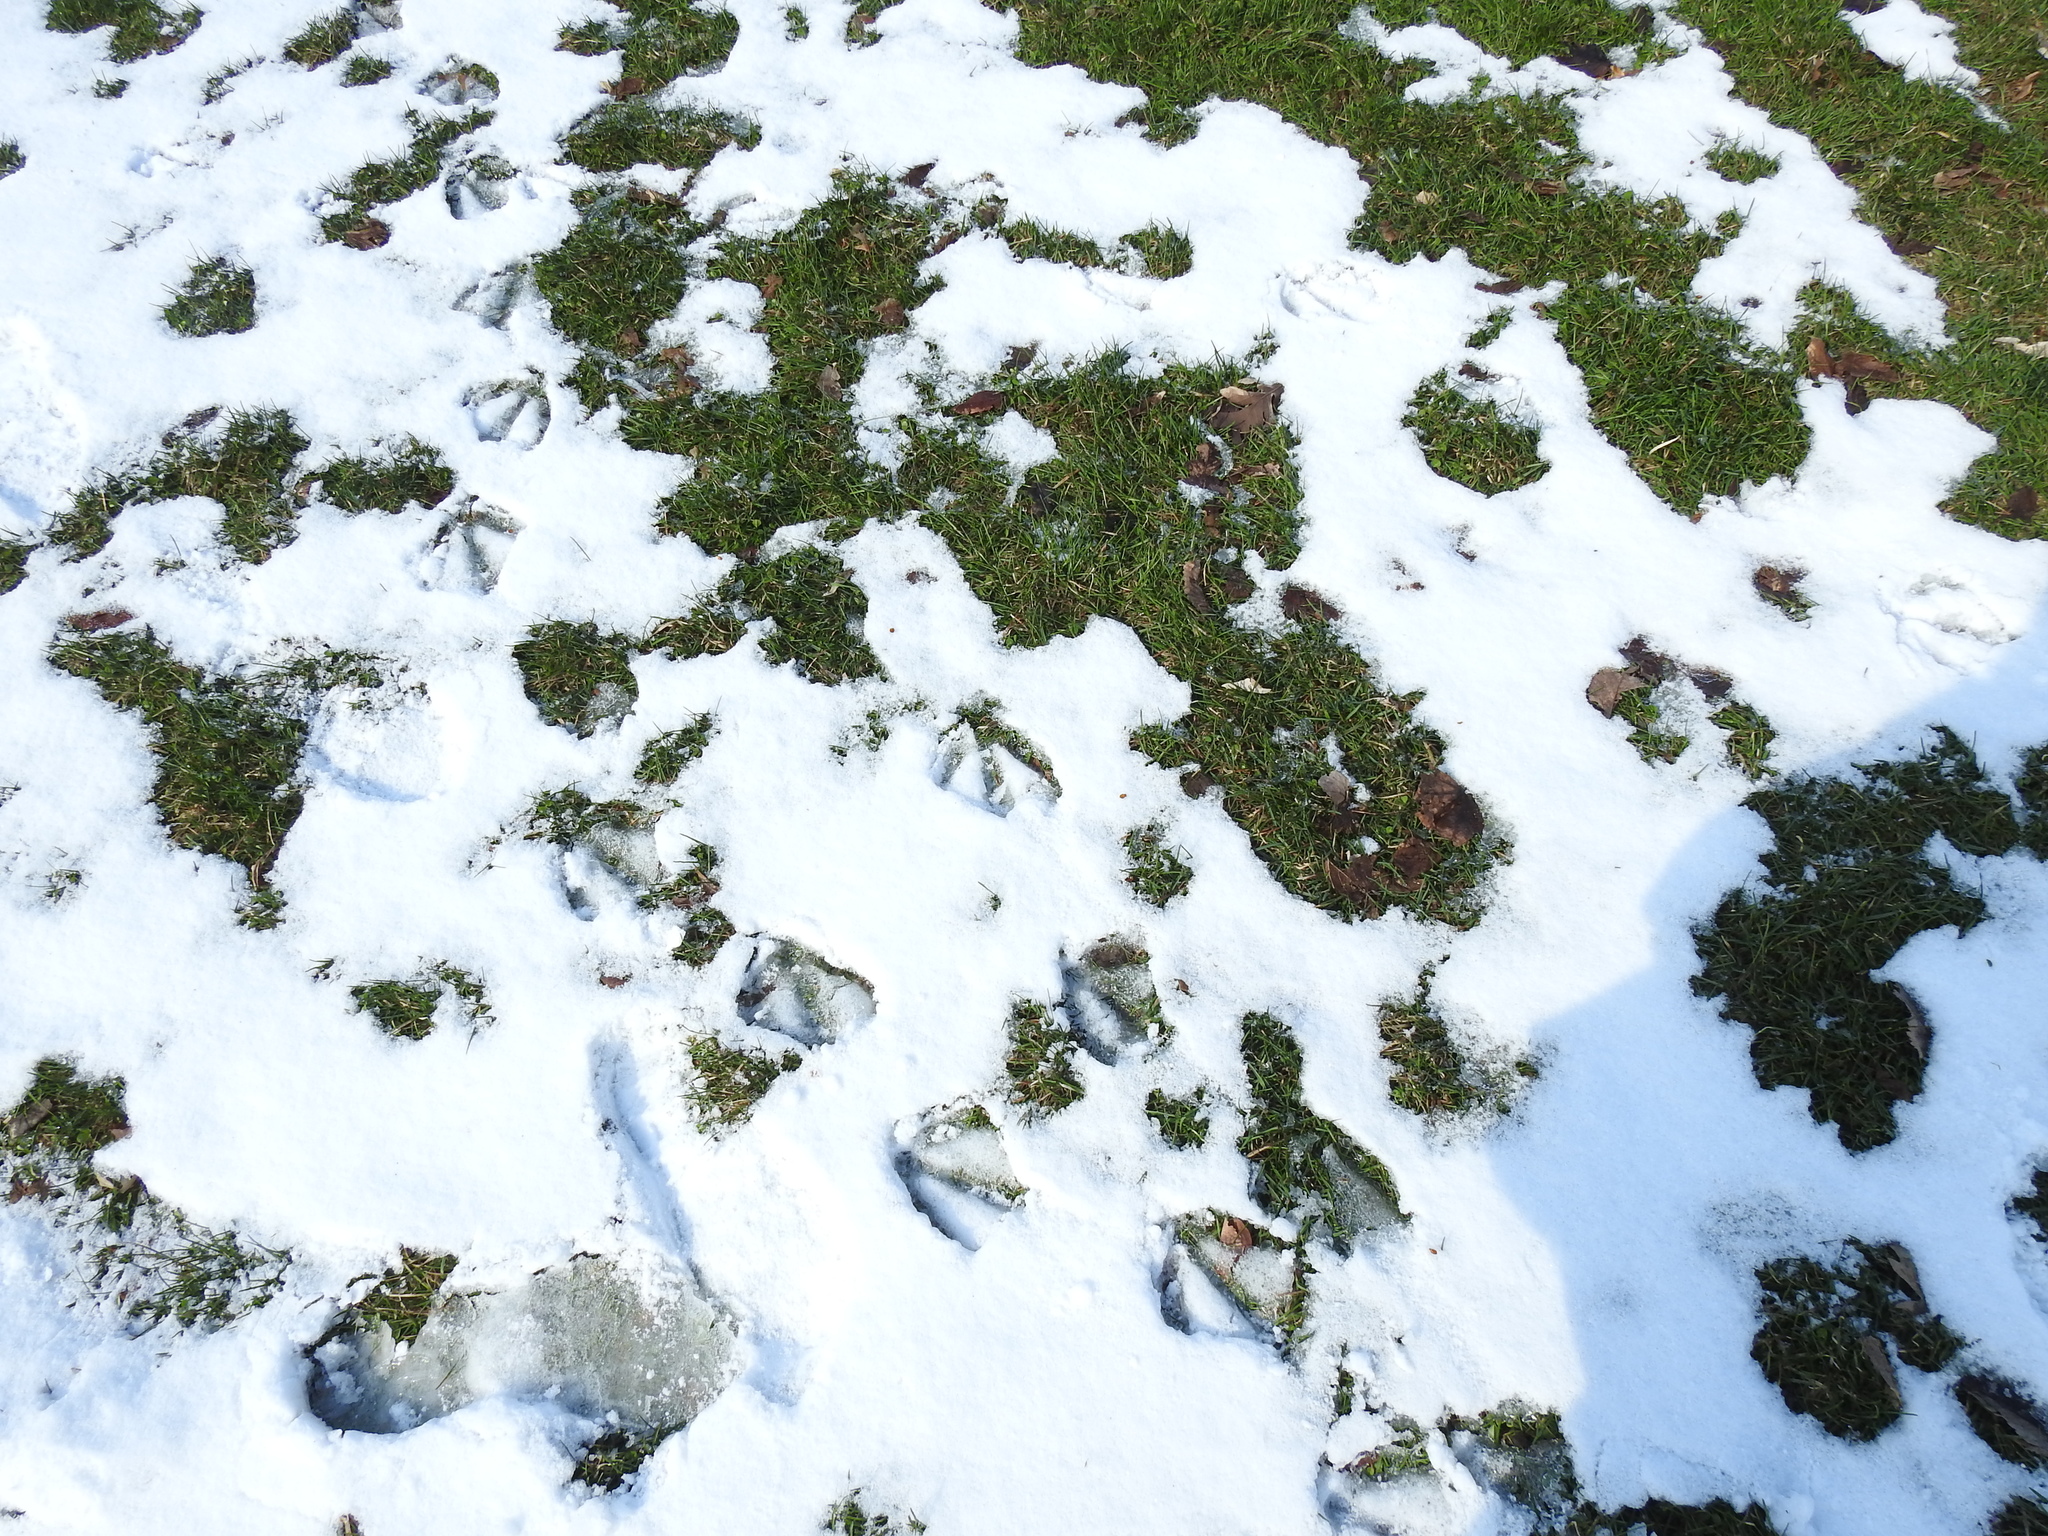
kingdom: Animalia
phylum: Chordata
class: Aves
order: Anseriformes
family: Anatidae
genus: Anas
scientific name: Anas platyrhynchos
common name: Mallard
